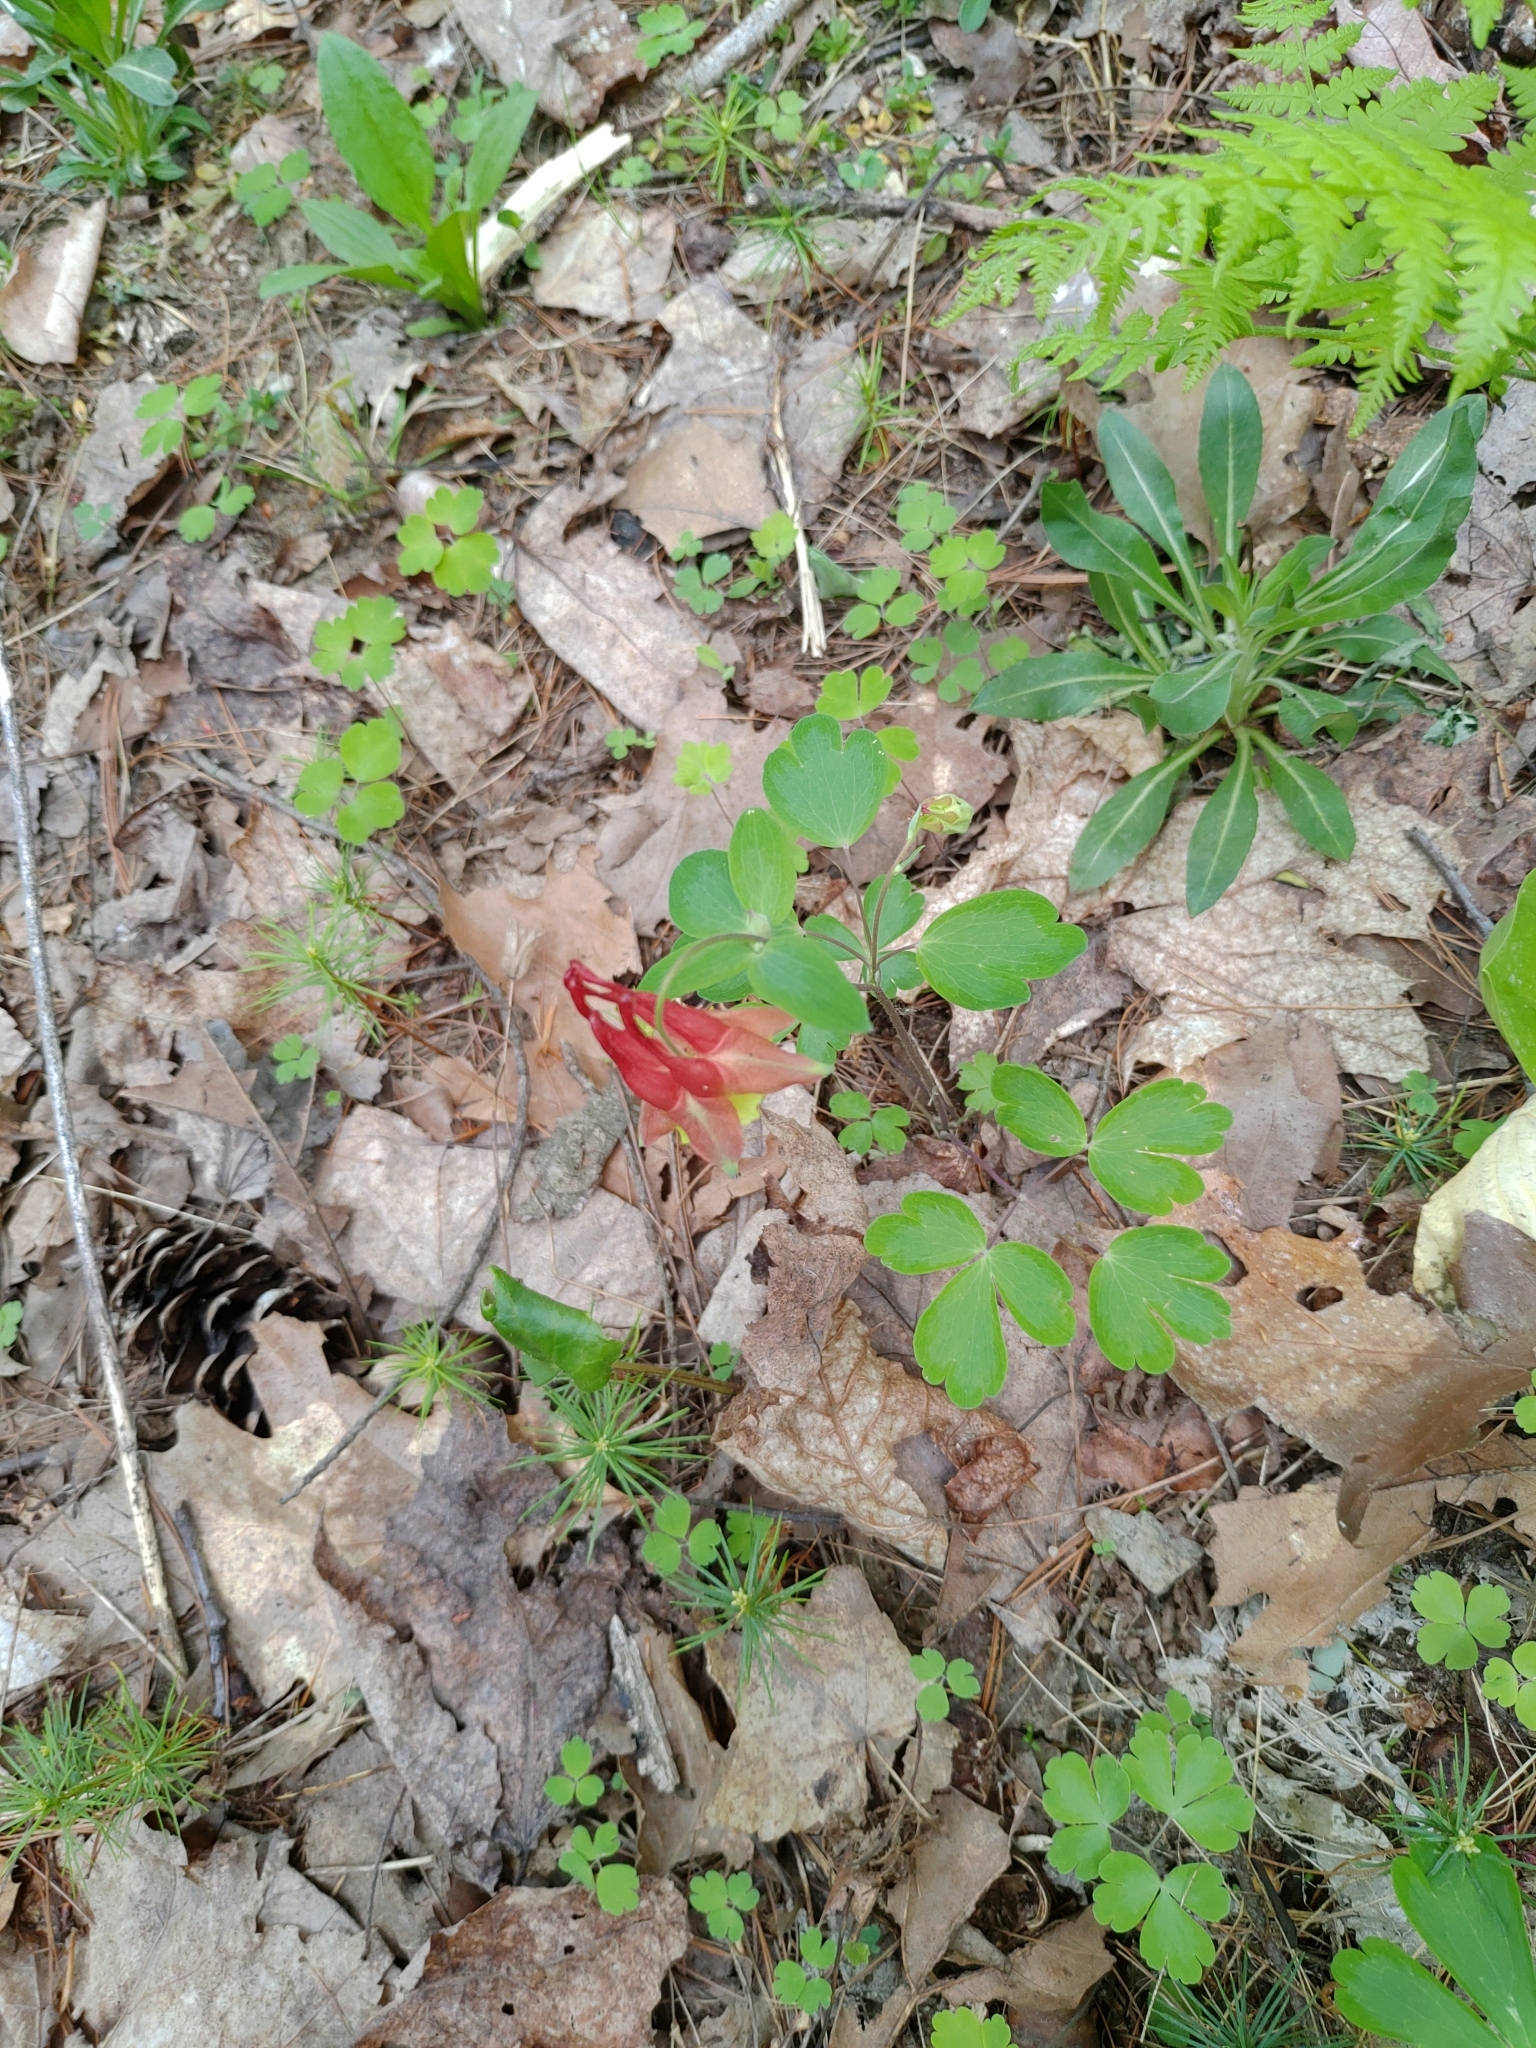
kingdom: Plantae
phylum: Tracheophyta
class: Magnoliopsida
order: Ranunculales
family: Ranunculaceae
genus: Aquilegia
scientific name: Aquilegia canadensis
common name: American columbine
